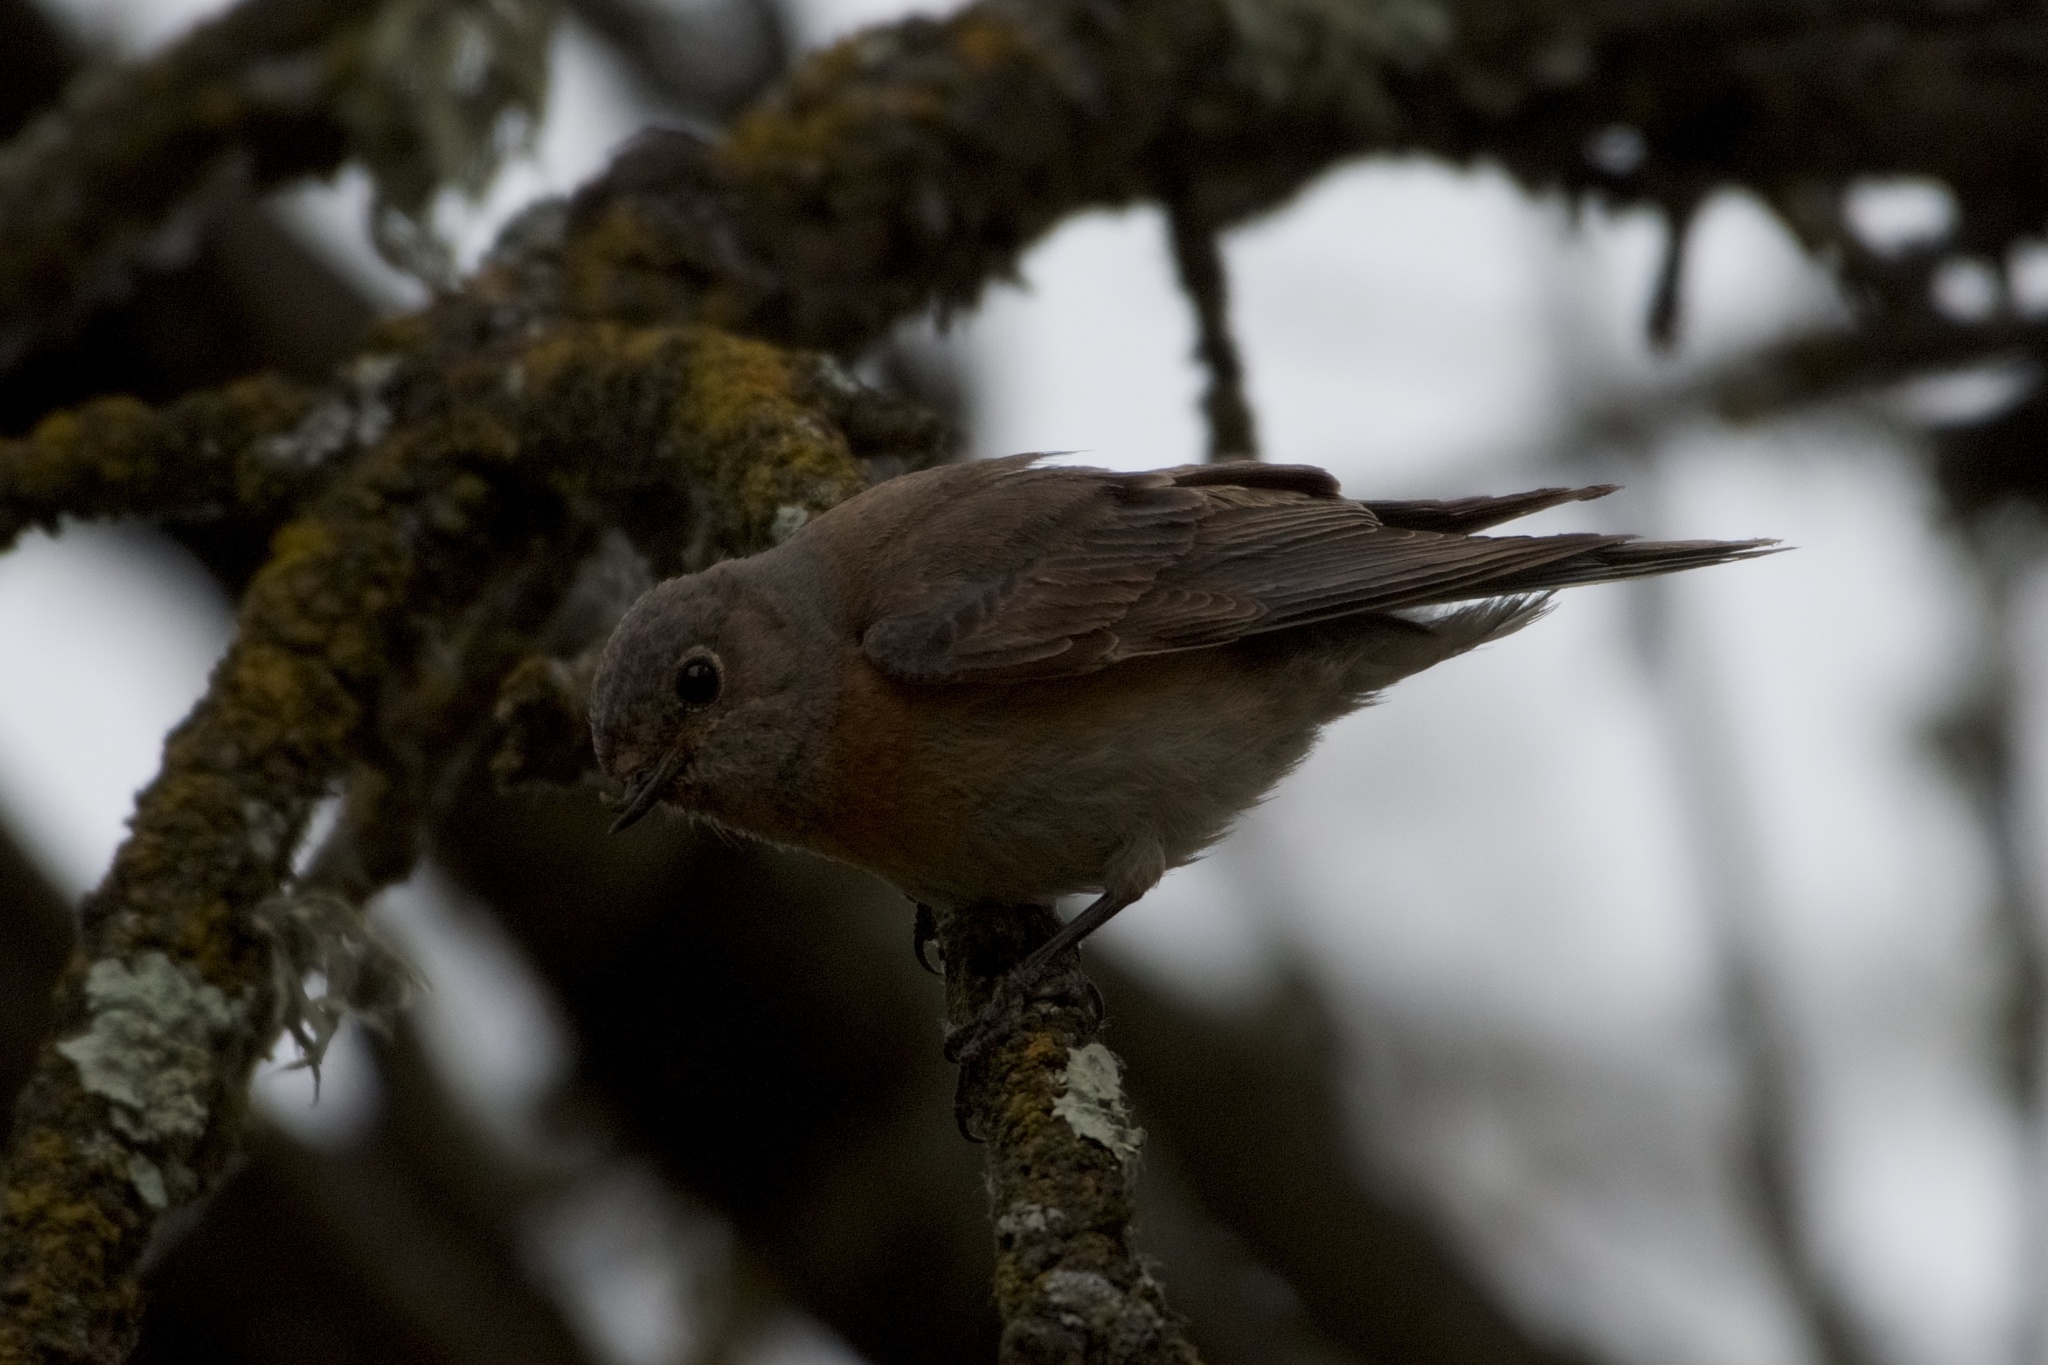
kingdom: Animalia
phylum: Chordata
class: Aves
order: Passeriformes
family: Turdidae
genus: Sialia
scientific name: Sialia mexicana
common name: Western bluebird
